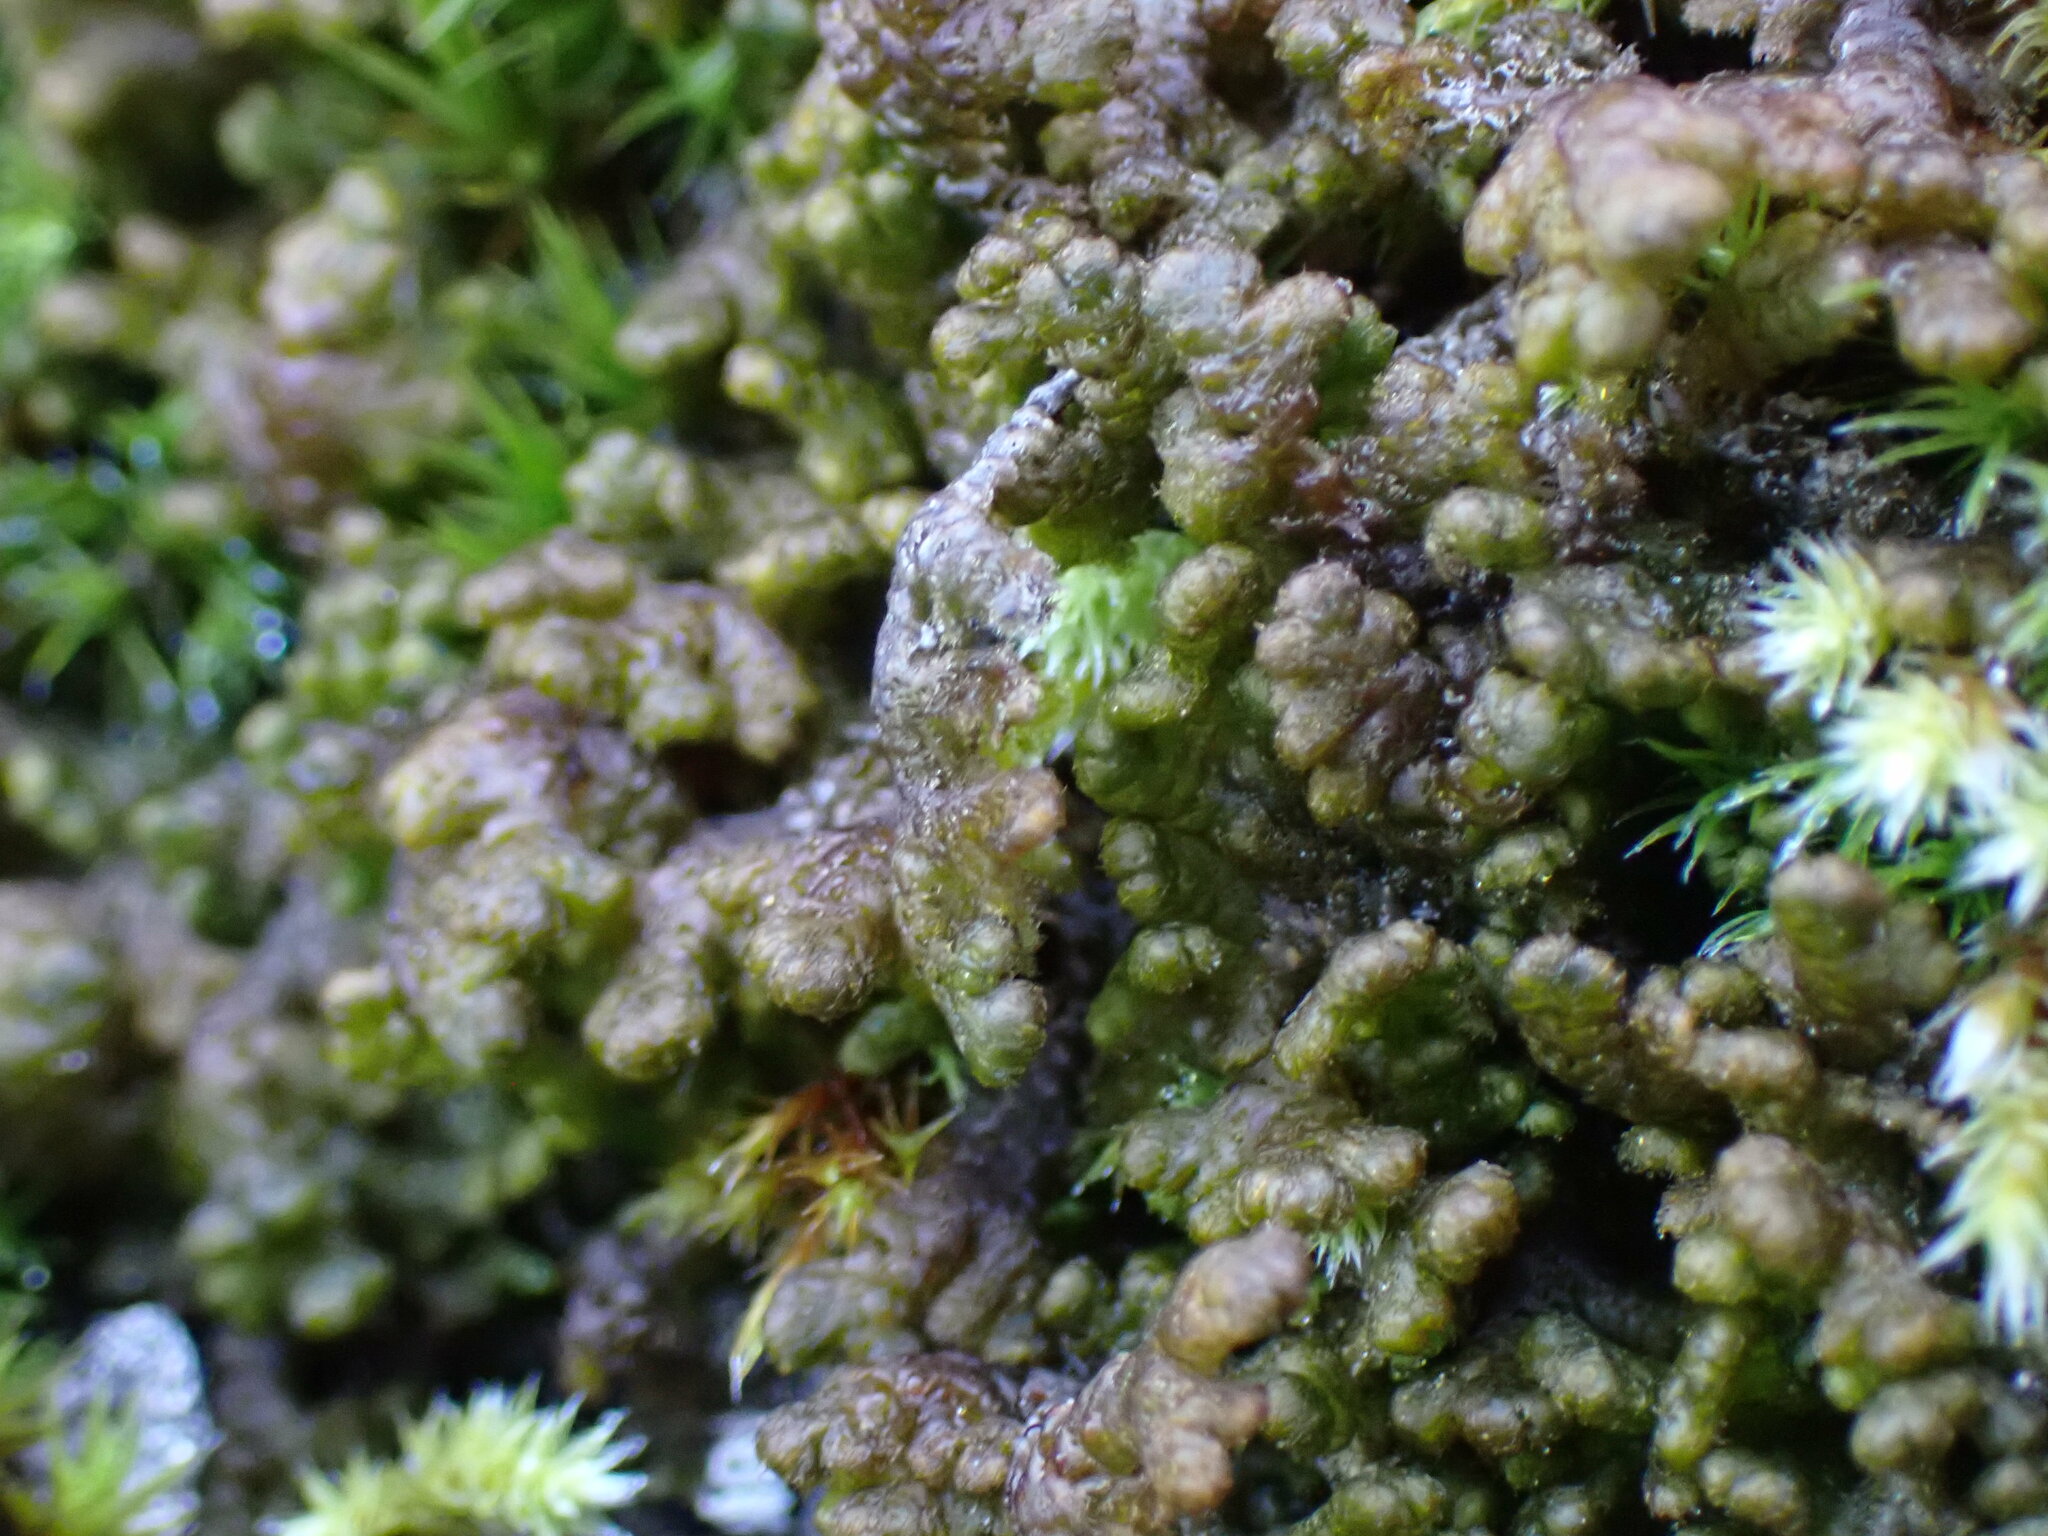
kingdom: Plantae
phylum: Marchantiophyta
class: Jungermanniopsida
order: Ptilidiales
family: Ptilidiaceae
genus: Ptilidium
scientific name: Ptilidium ciliare
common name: Ciliate fringewort
